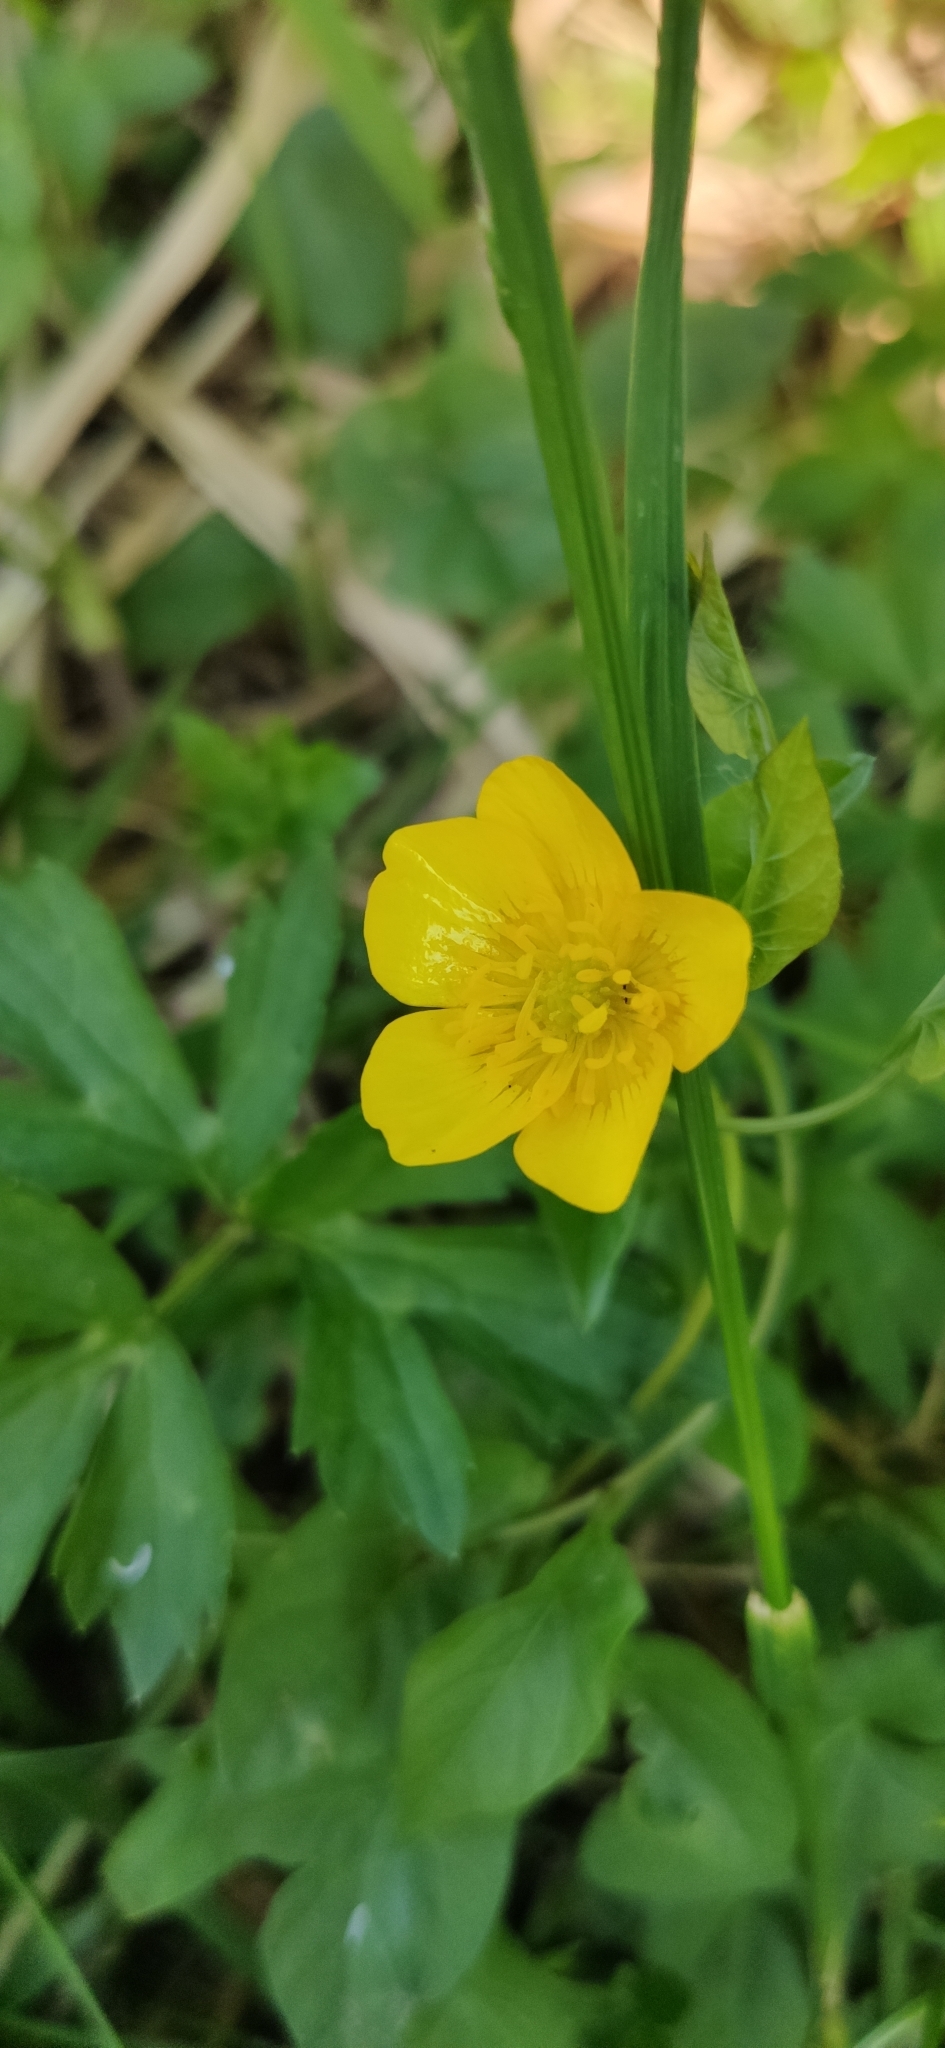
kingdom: Plantae
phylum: Tracheophyta
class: Magnoliopsida
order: Ranunculales
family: Ranunculaceae
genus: Ranunculus
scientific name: Ranunculus repens
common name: Creeping buttercup
